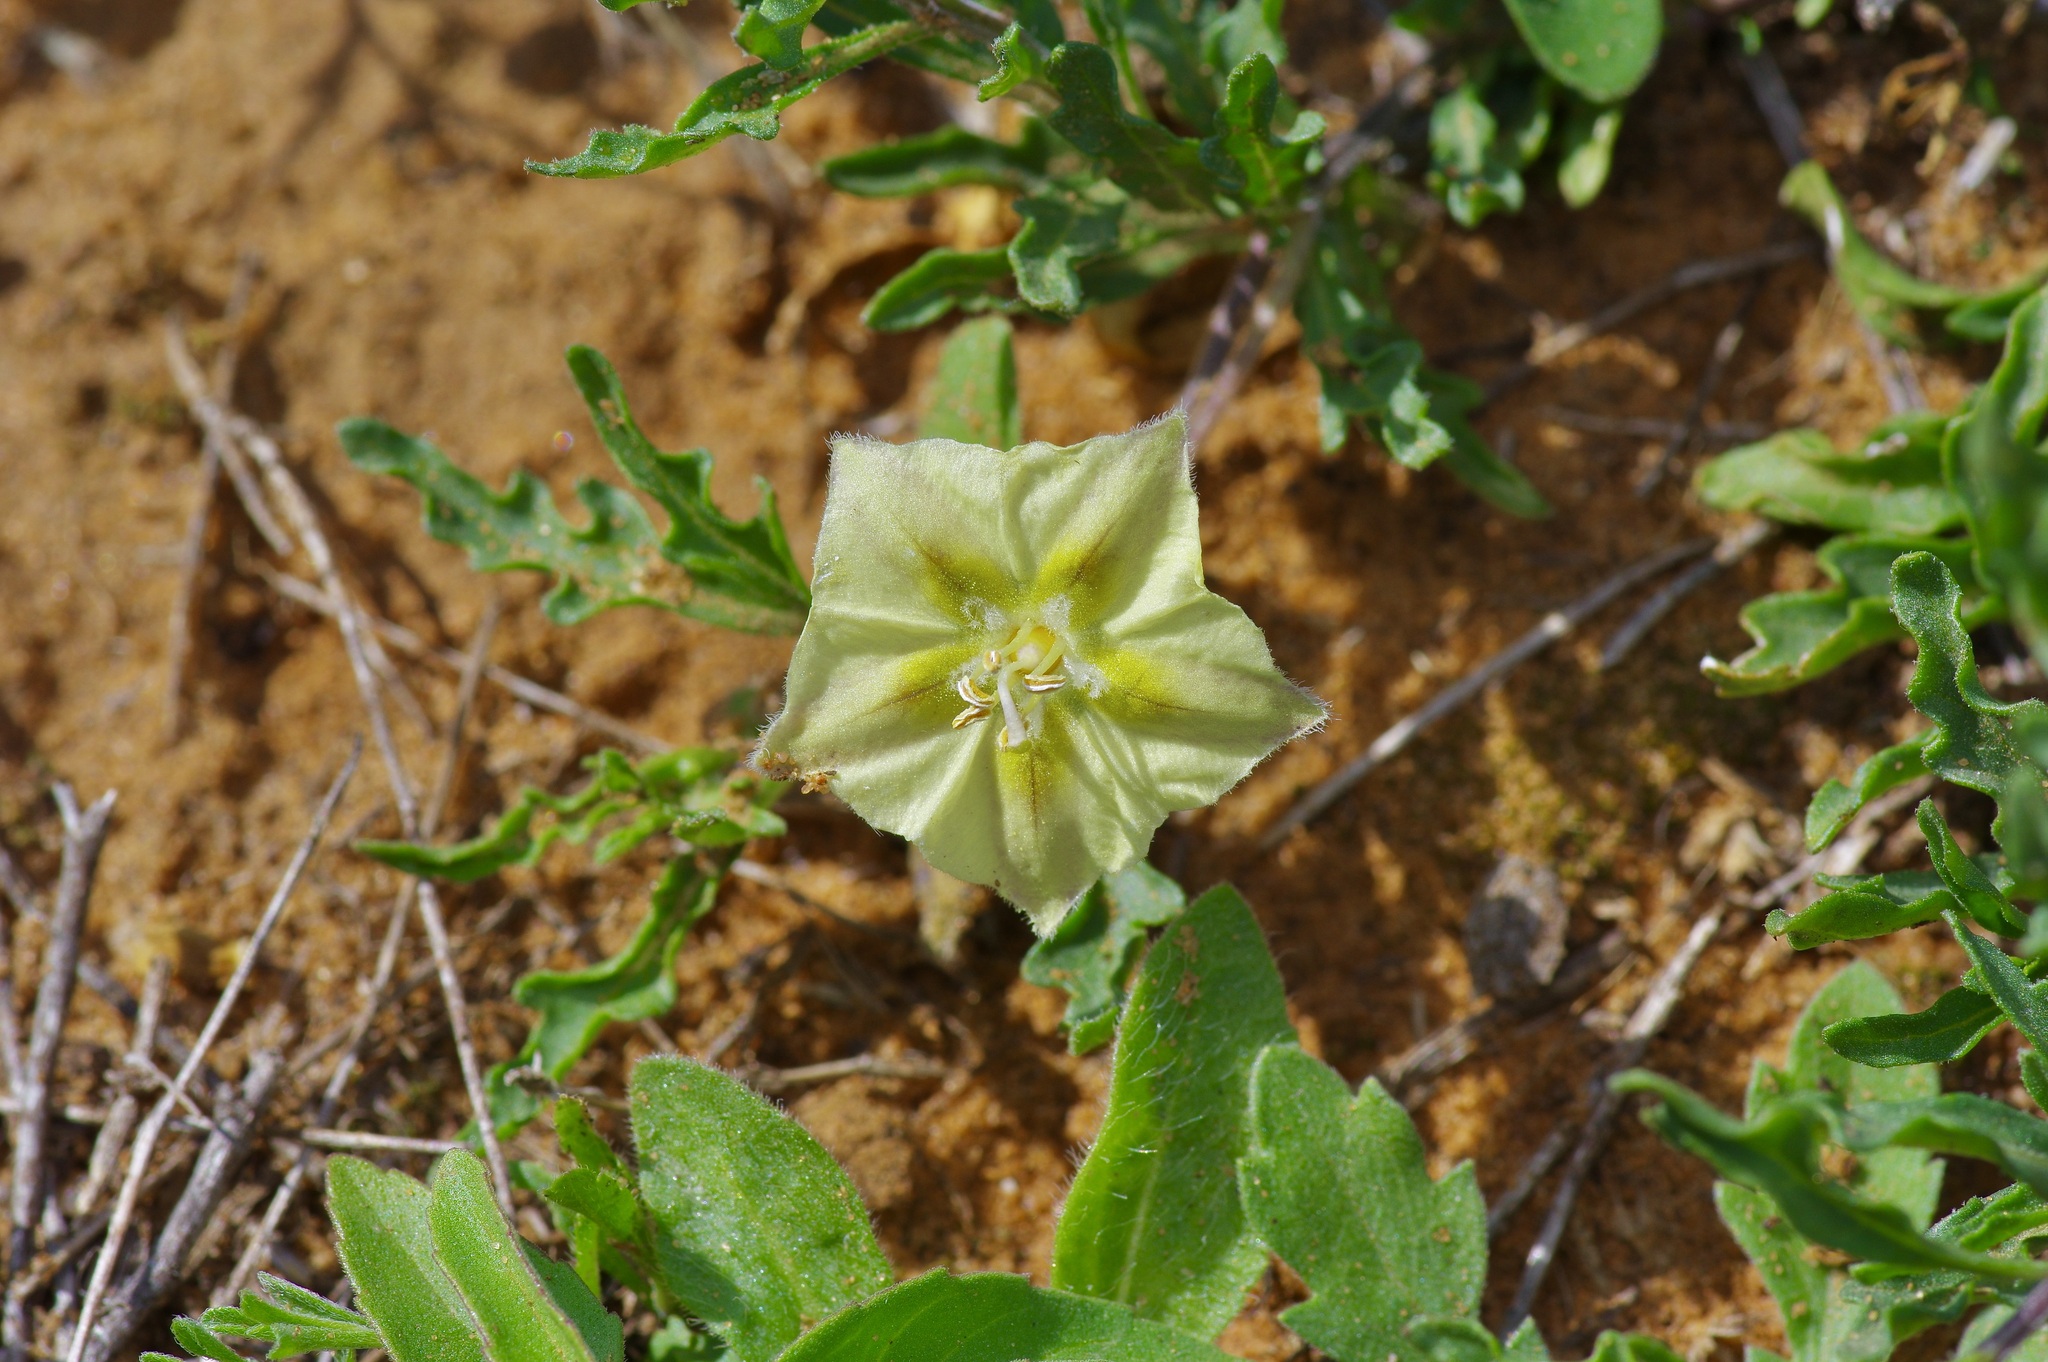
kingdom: Plantae
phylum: Tracheophyta
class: Magnoliopsida
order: Solanales
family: Solanaceae
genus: Chamaesaracha
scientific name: Chamaesaracha edwardsiana
